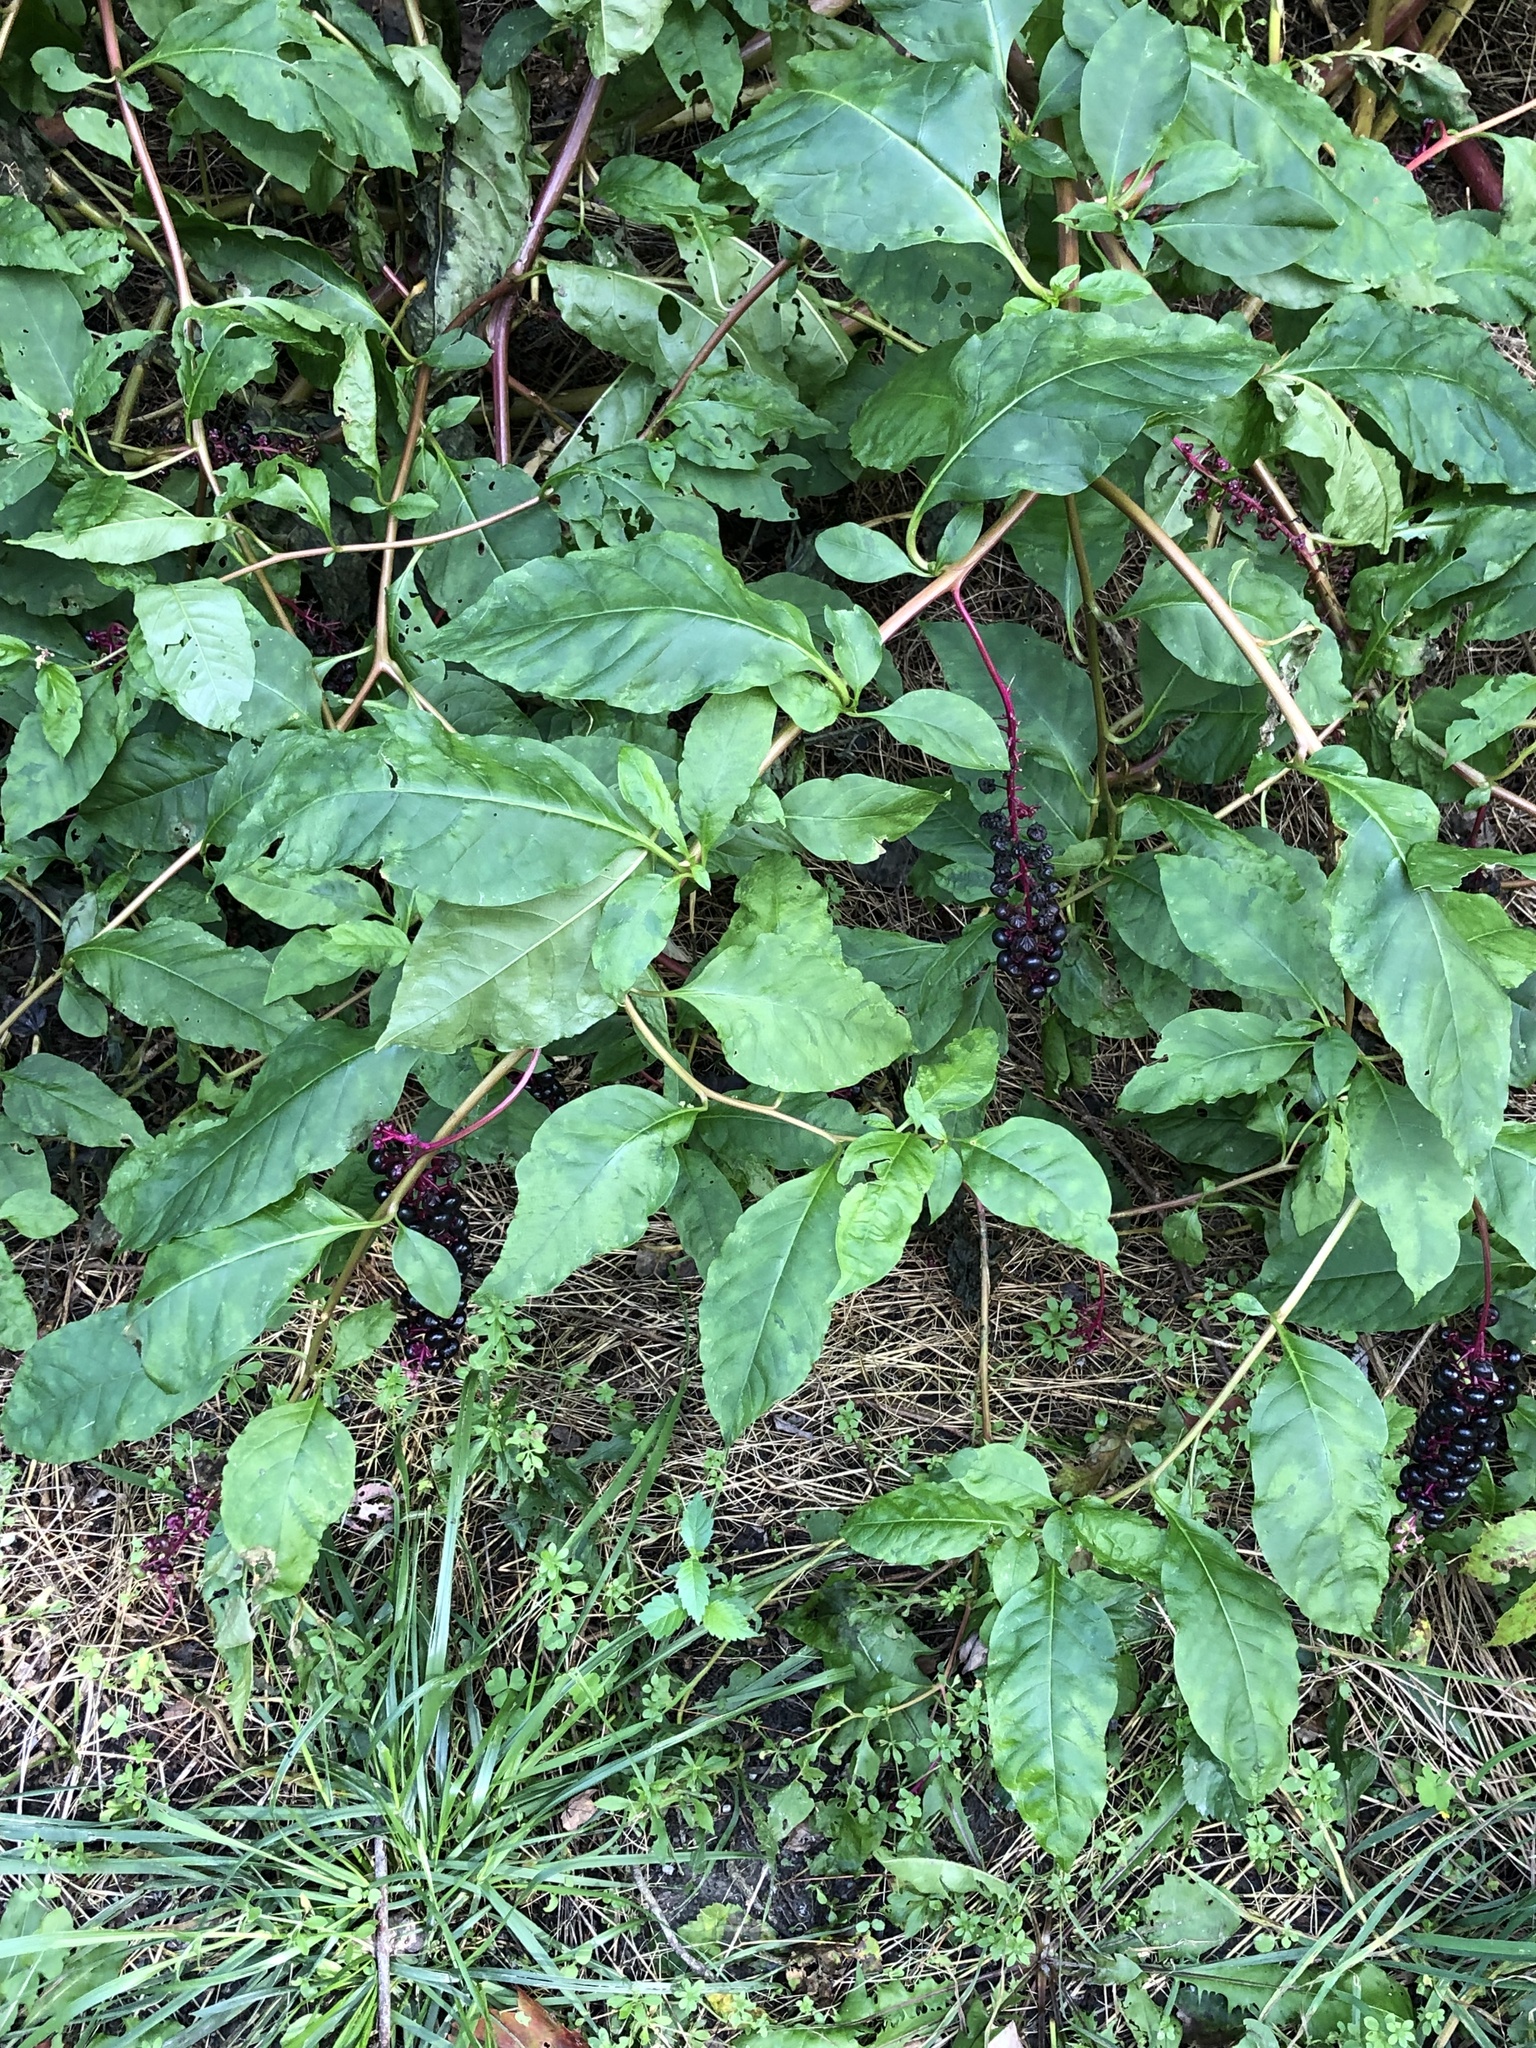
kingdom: Plantae
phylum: Tracheophyta
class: Magnoliopsida
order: Caryophyllales
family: Phytolaccaceae
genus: Phytolacca
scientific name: Phytolacca americana
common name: American pokeweed
